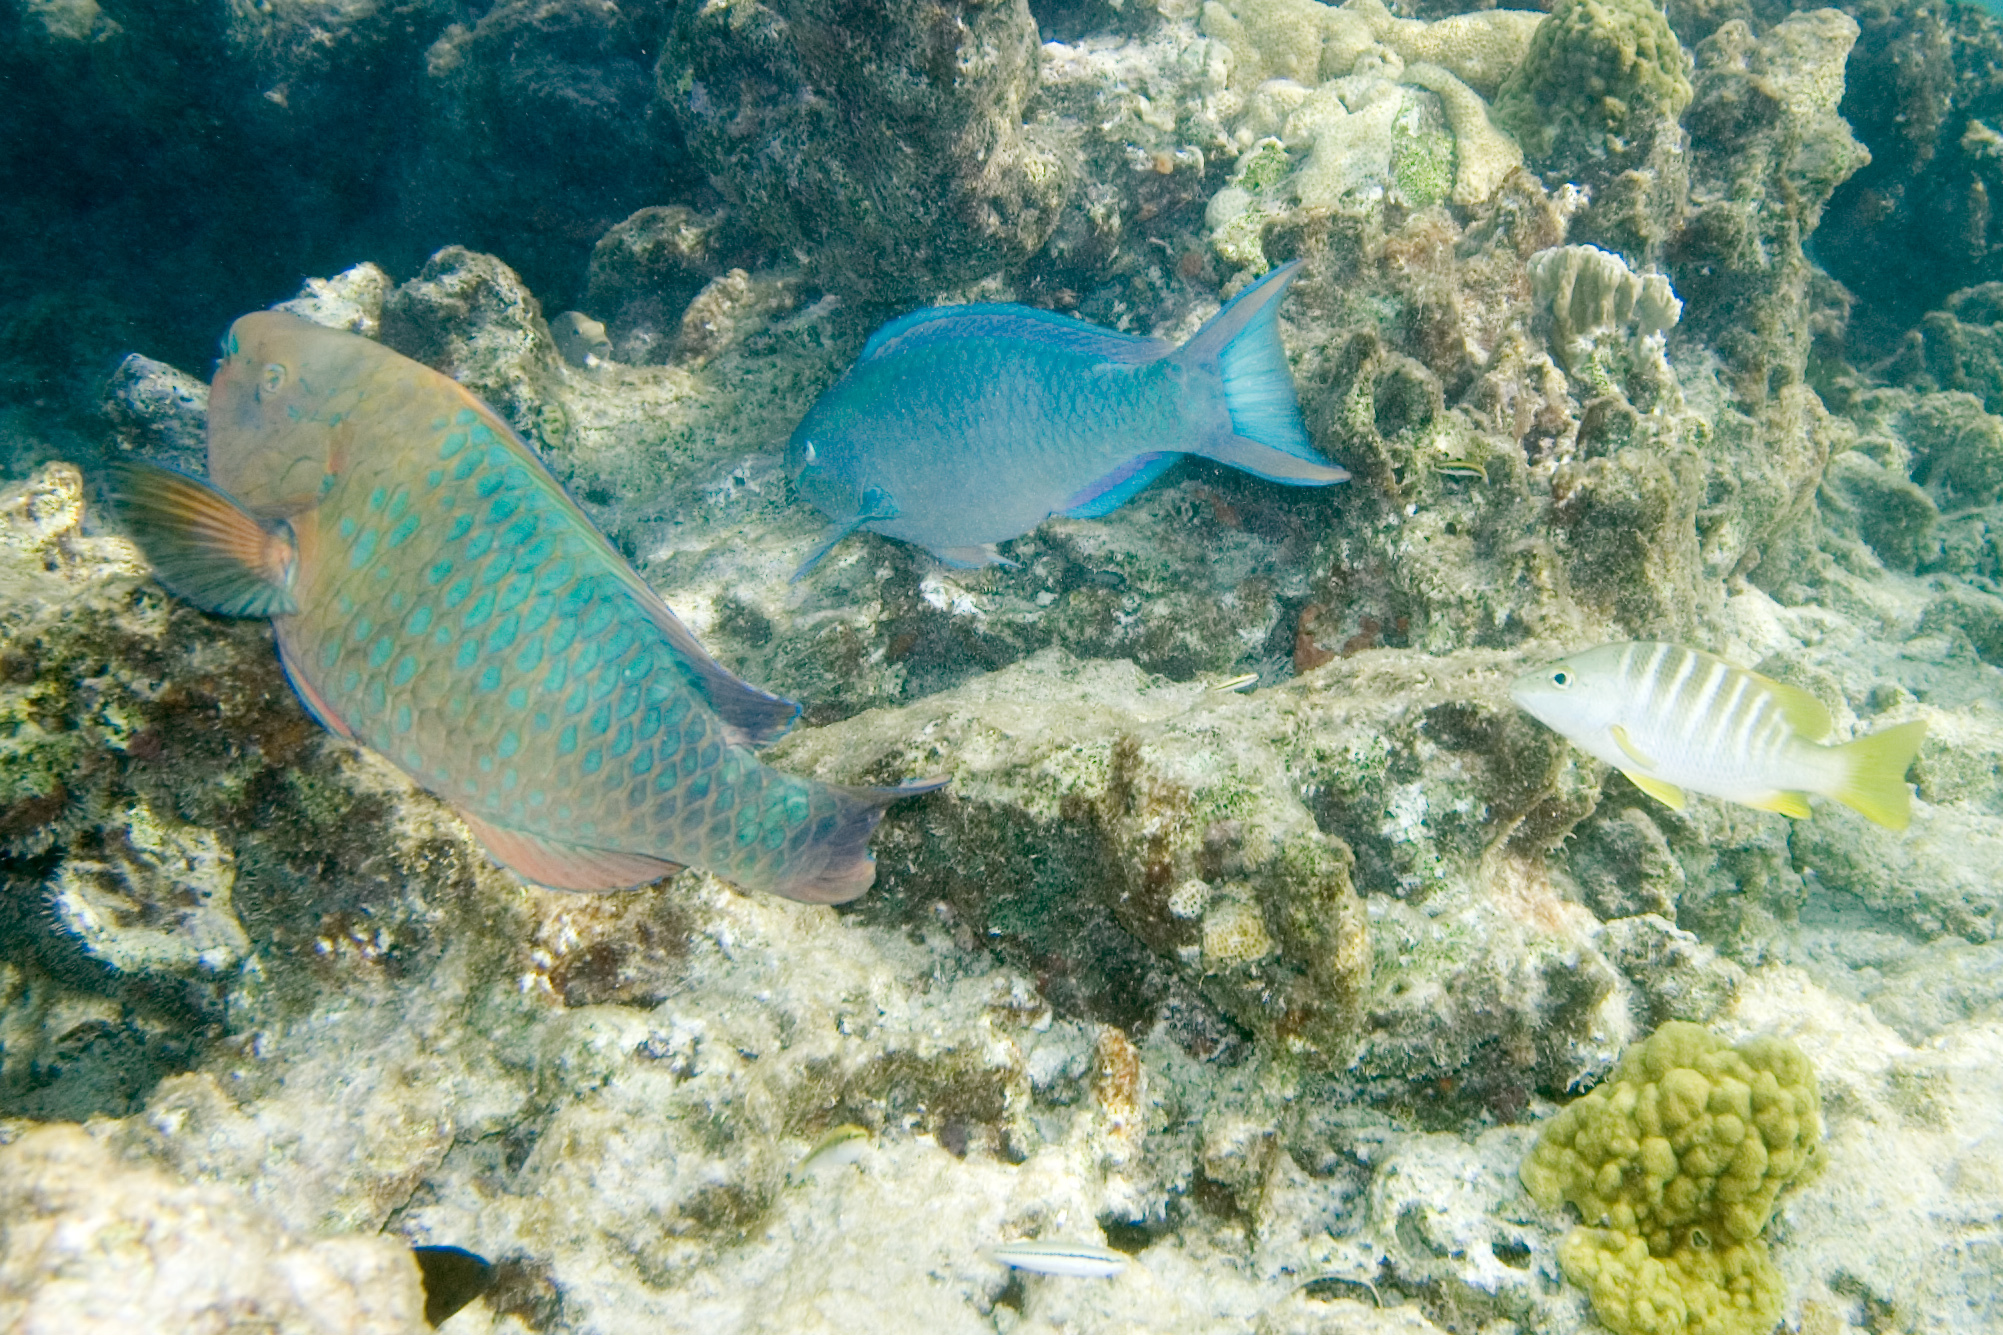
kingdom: Animalia
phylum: Chordata
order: Perciformes
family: Lutjanidae
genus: Lutjanus
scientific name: Lutjanus apodus
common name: Schoolmaster
